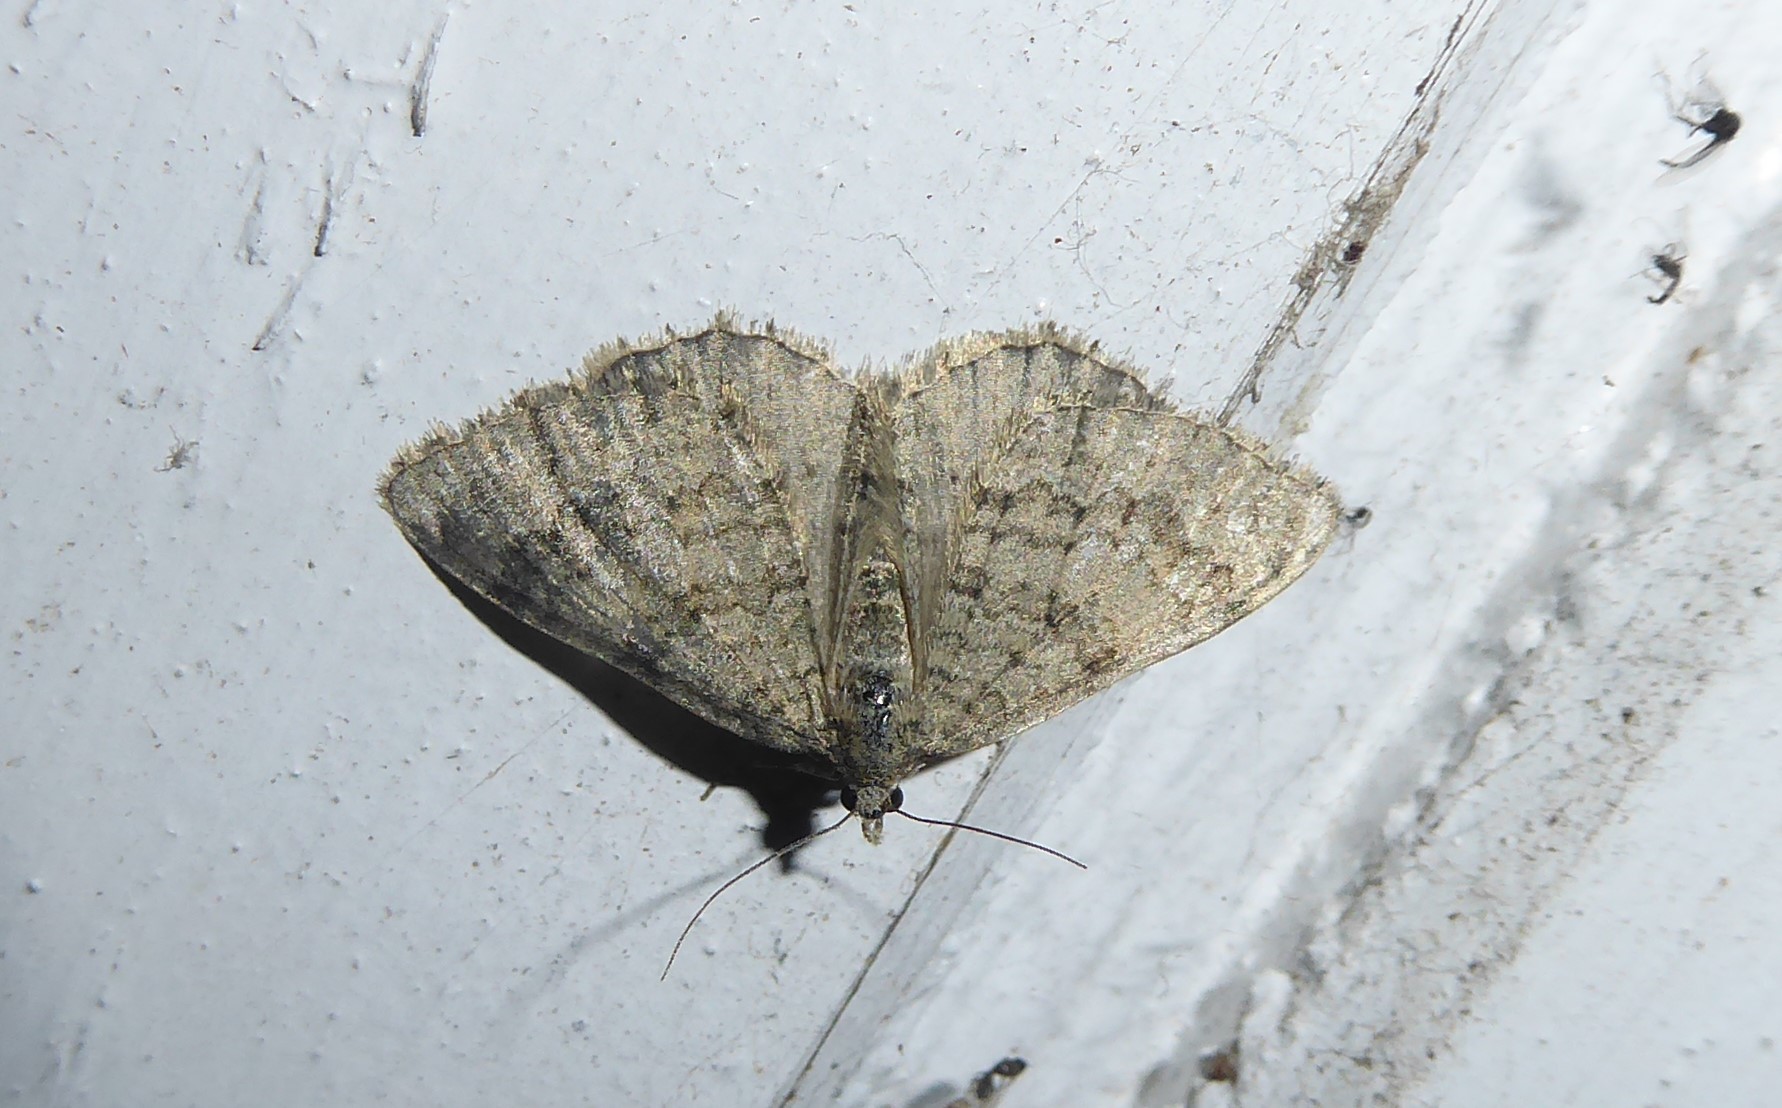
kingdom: Animalia
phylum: Arthropoda
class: Insecta
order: Lepidoptera
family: Geometridae
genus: Helastia
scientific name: Helastia corcularia
